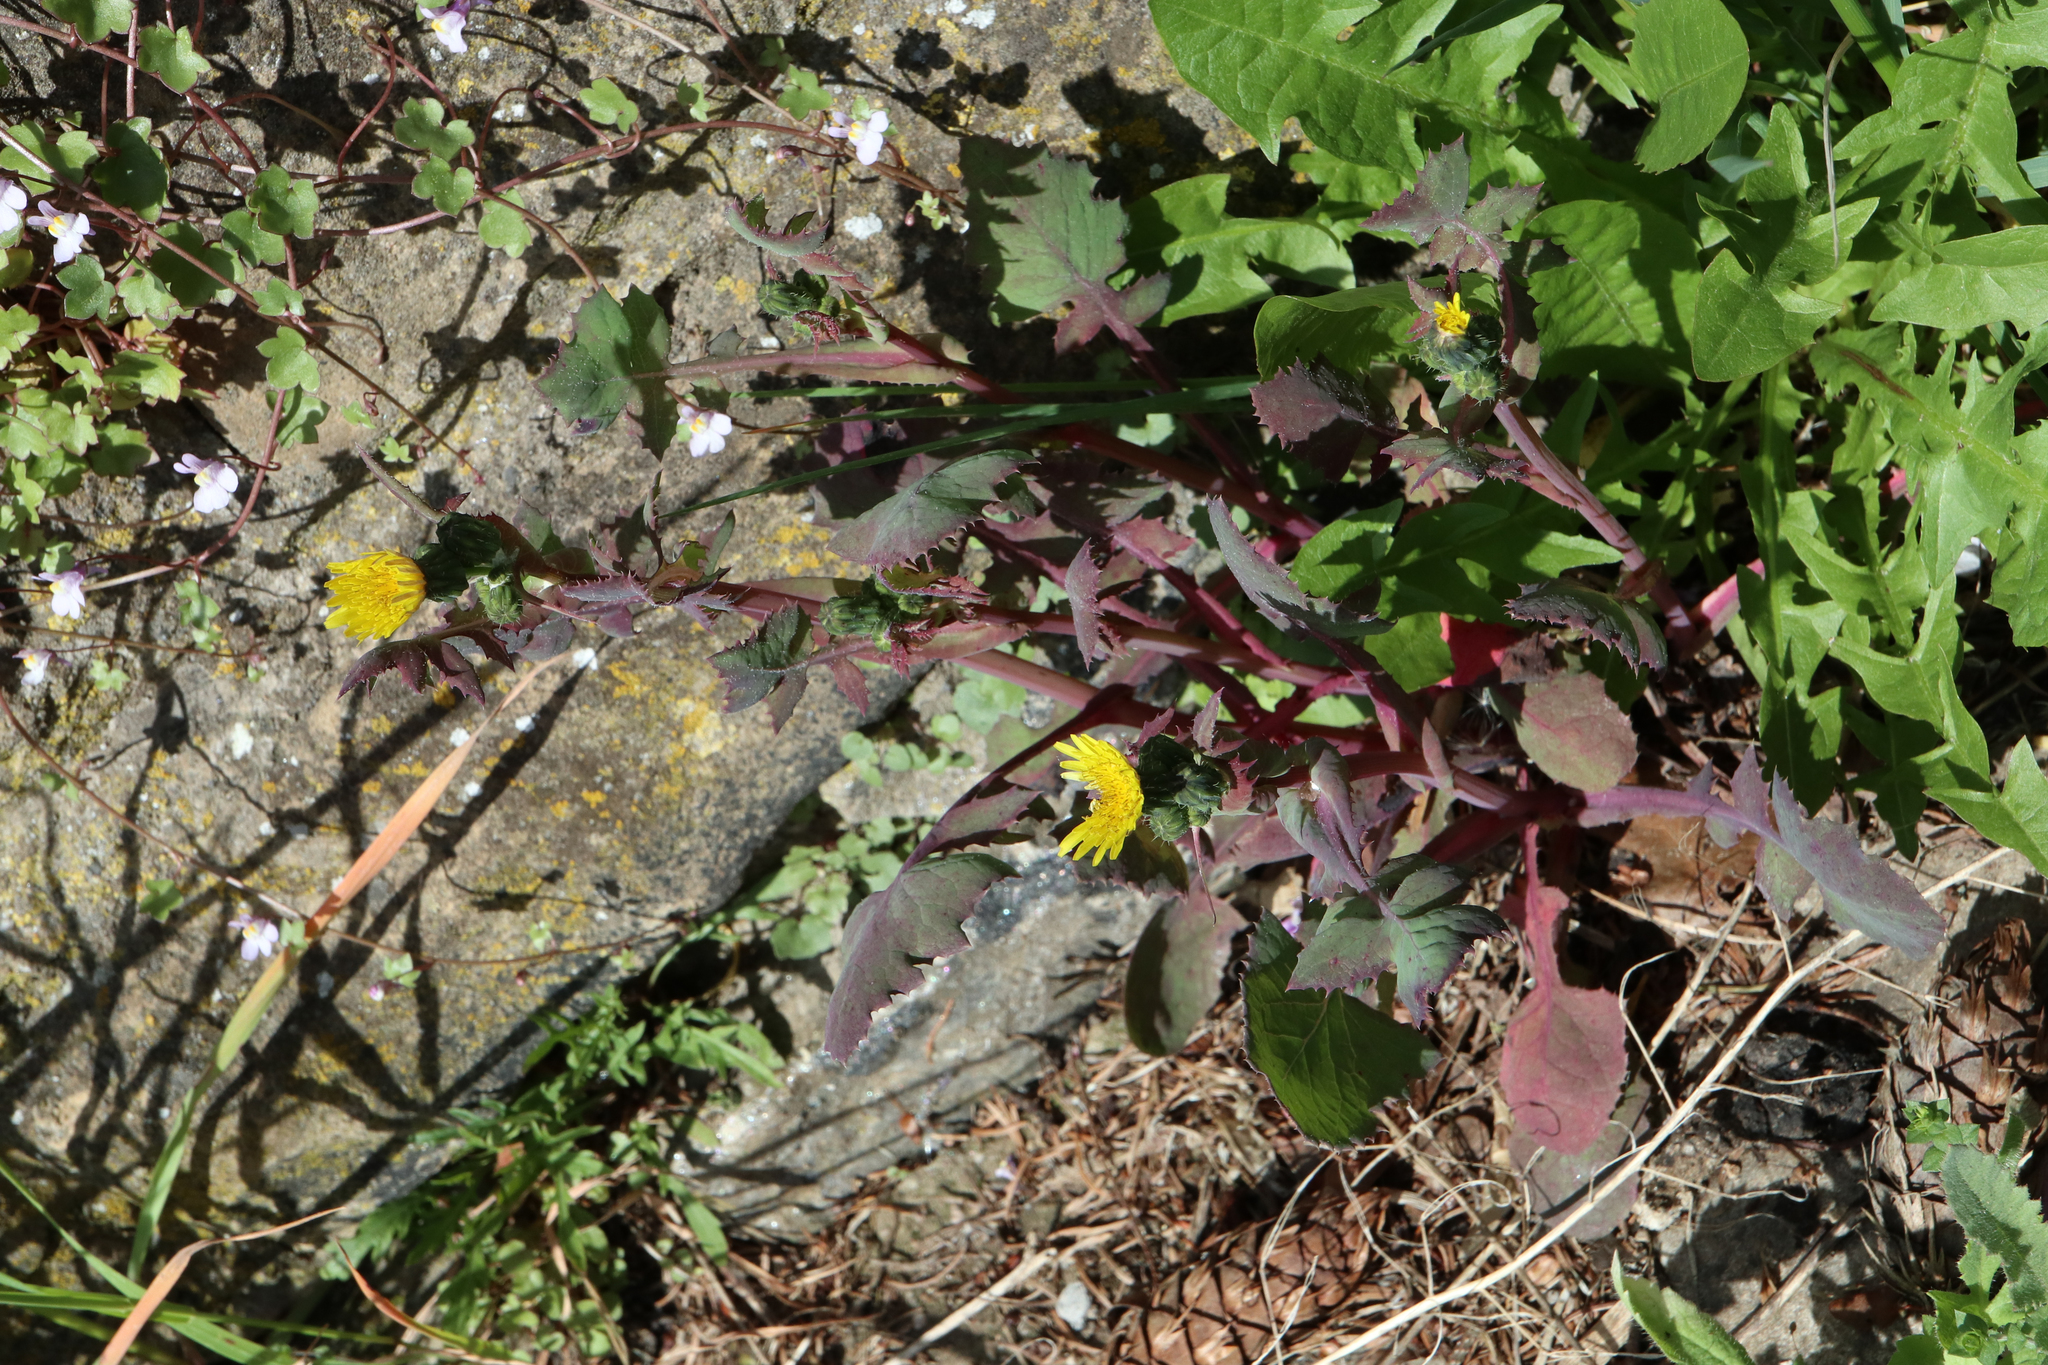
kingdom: Plantae
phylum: Tracheophyta
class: Magnoliopsida
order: Asterales
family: Asteraceae
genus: Sonchus
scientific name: Sonchus oleraceus
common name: Common sowthistle
